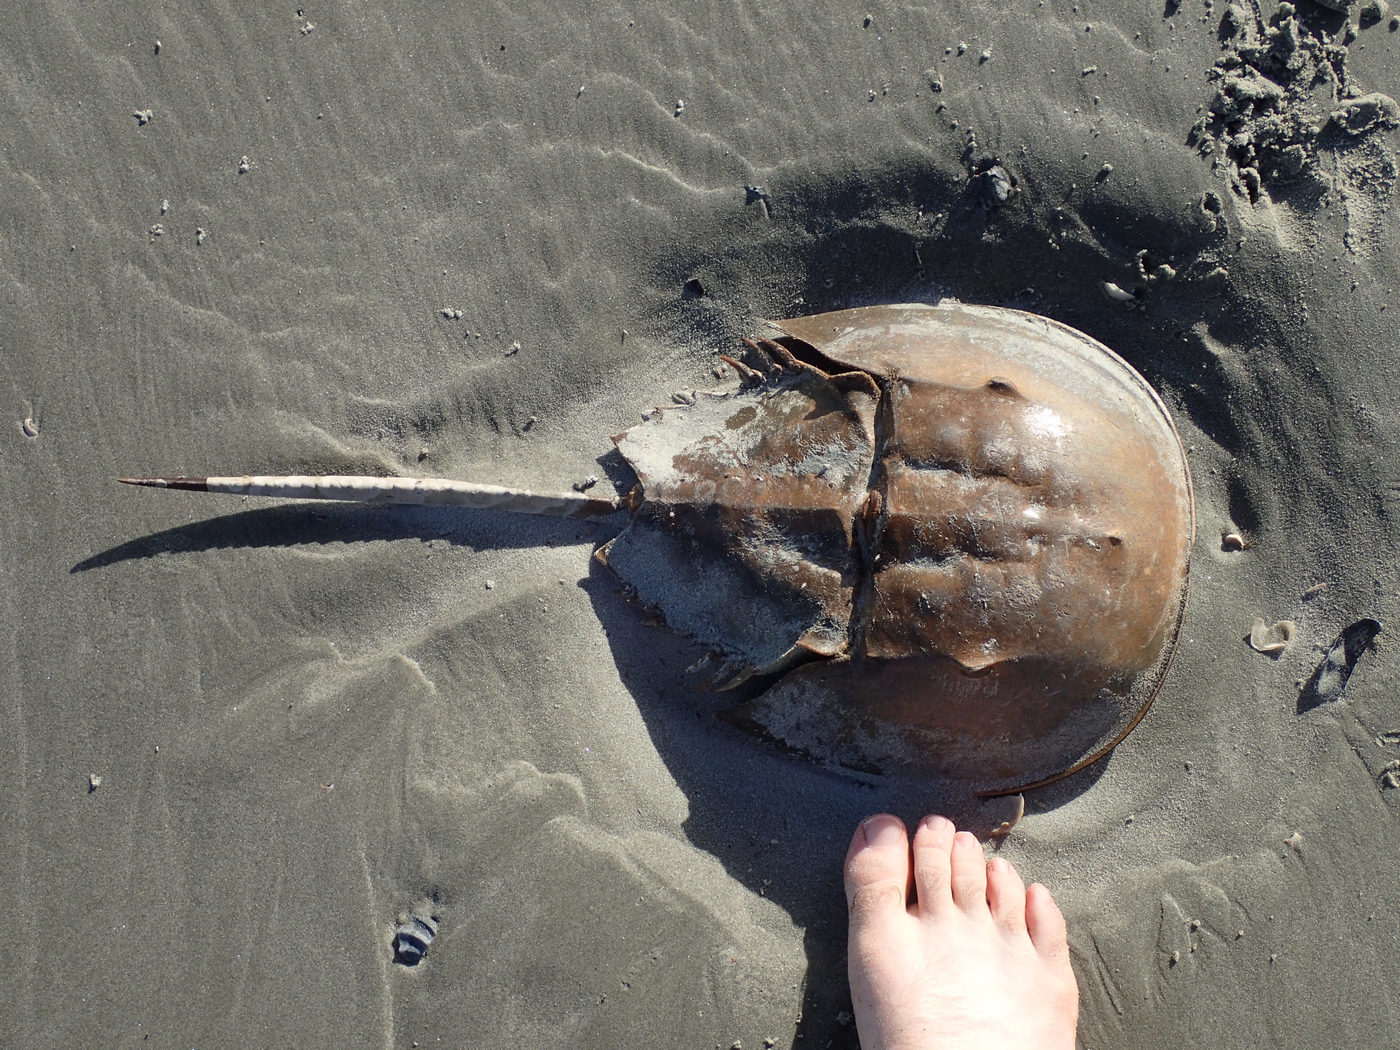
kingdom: Animalia
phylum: Arthropoda
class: Merostomata
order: Xiphosurida
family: Limulidae
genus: Limulus
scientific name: Limulus polyphemus
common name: Horseshoe crab
